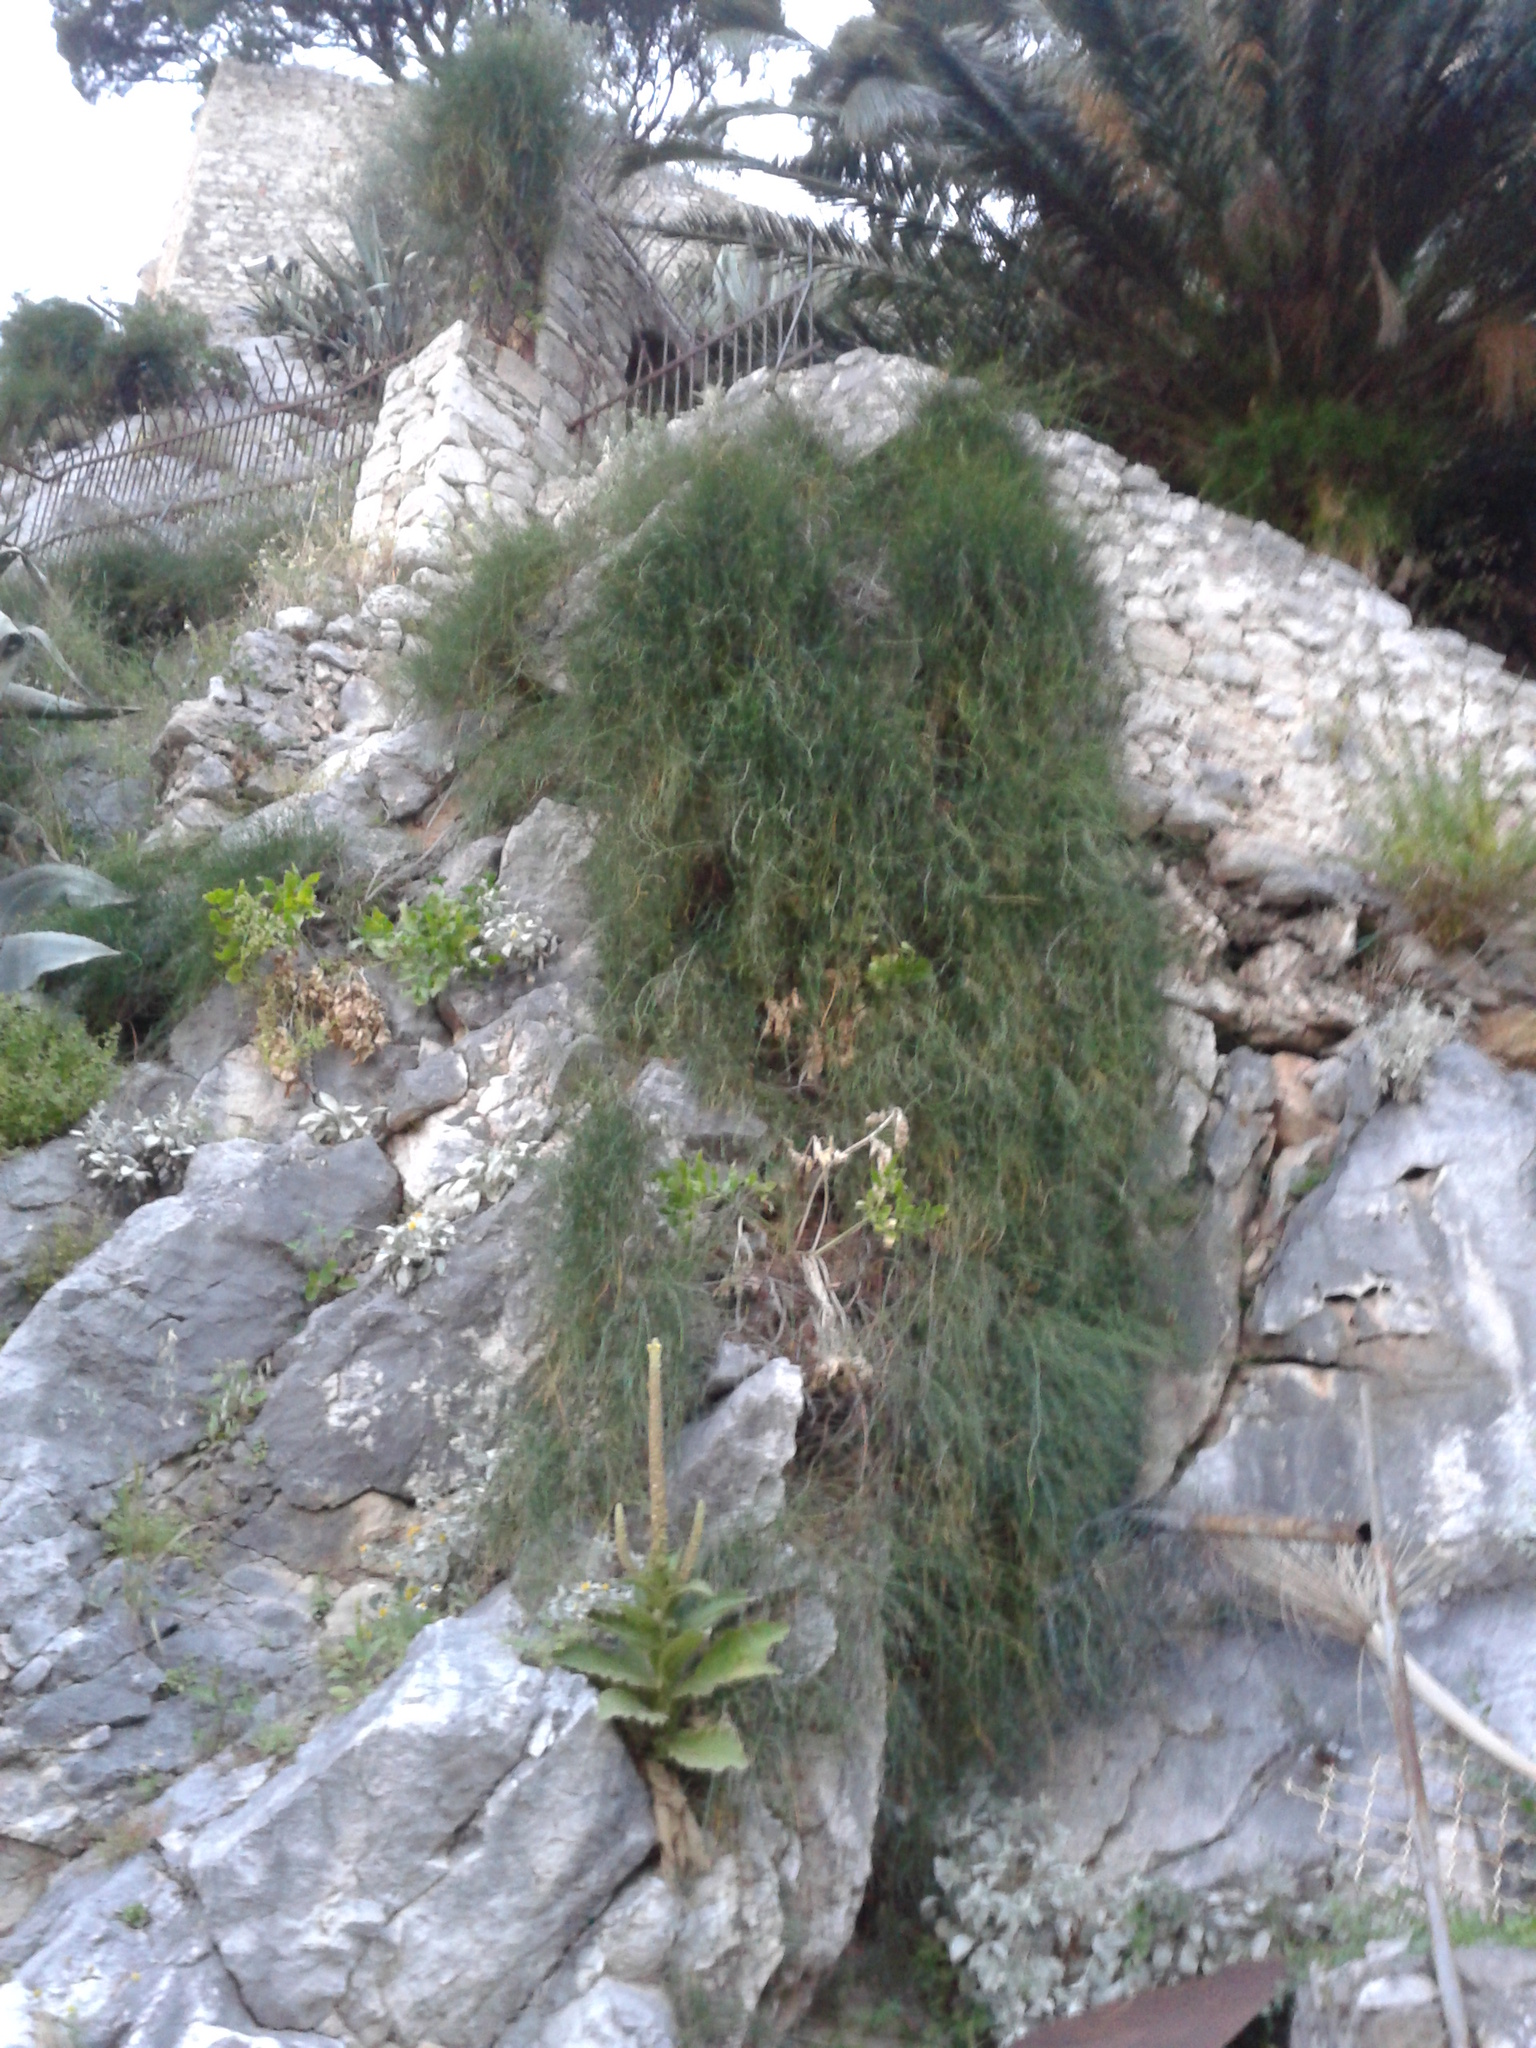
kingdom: Plantae
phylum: Tracheophyta
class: Gnetopsida
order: Ephedrales
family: Ephedraceae
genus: Ephedra
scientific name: Ephedra foeminea
